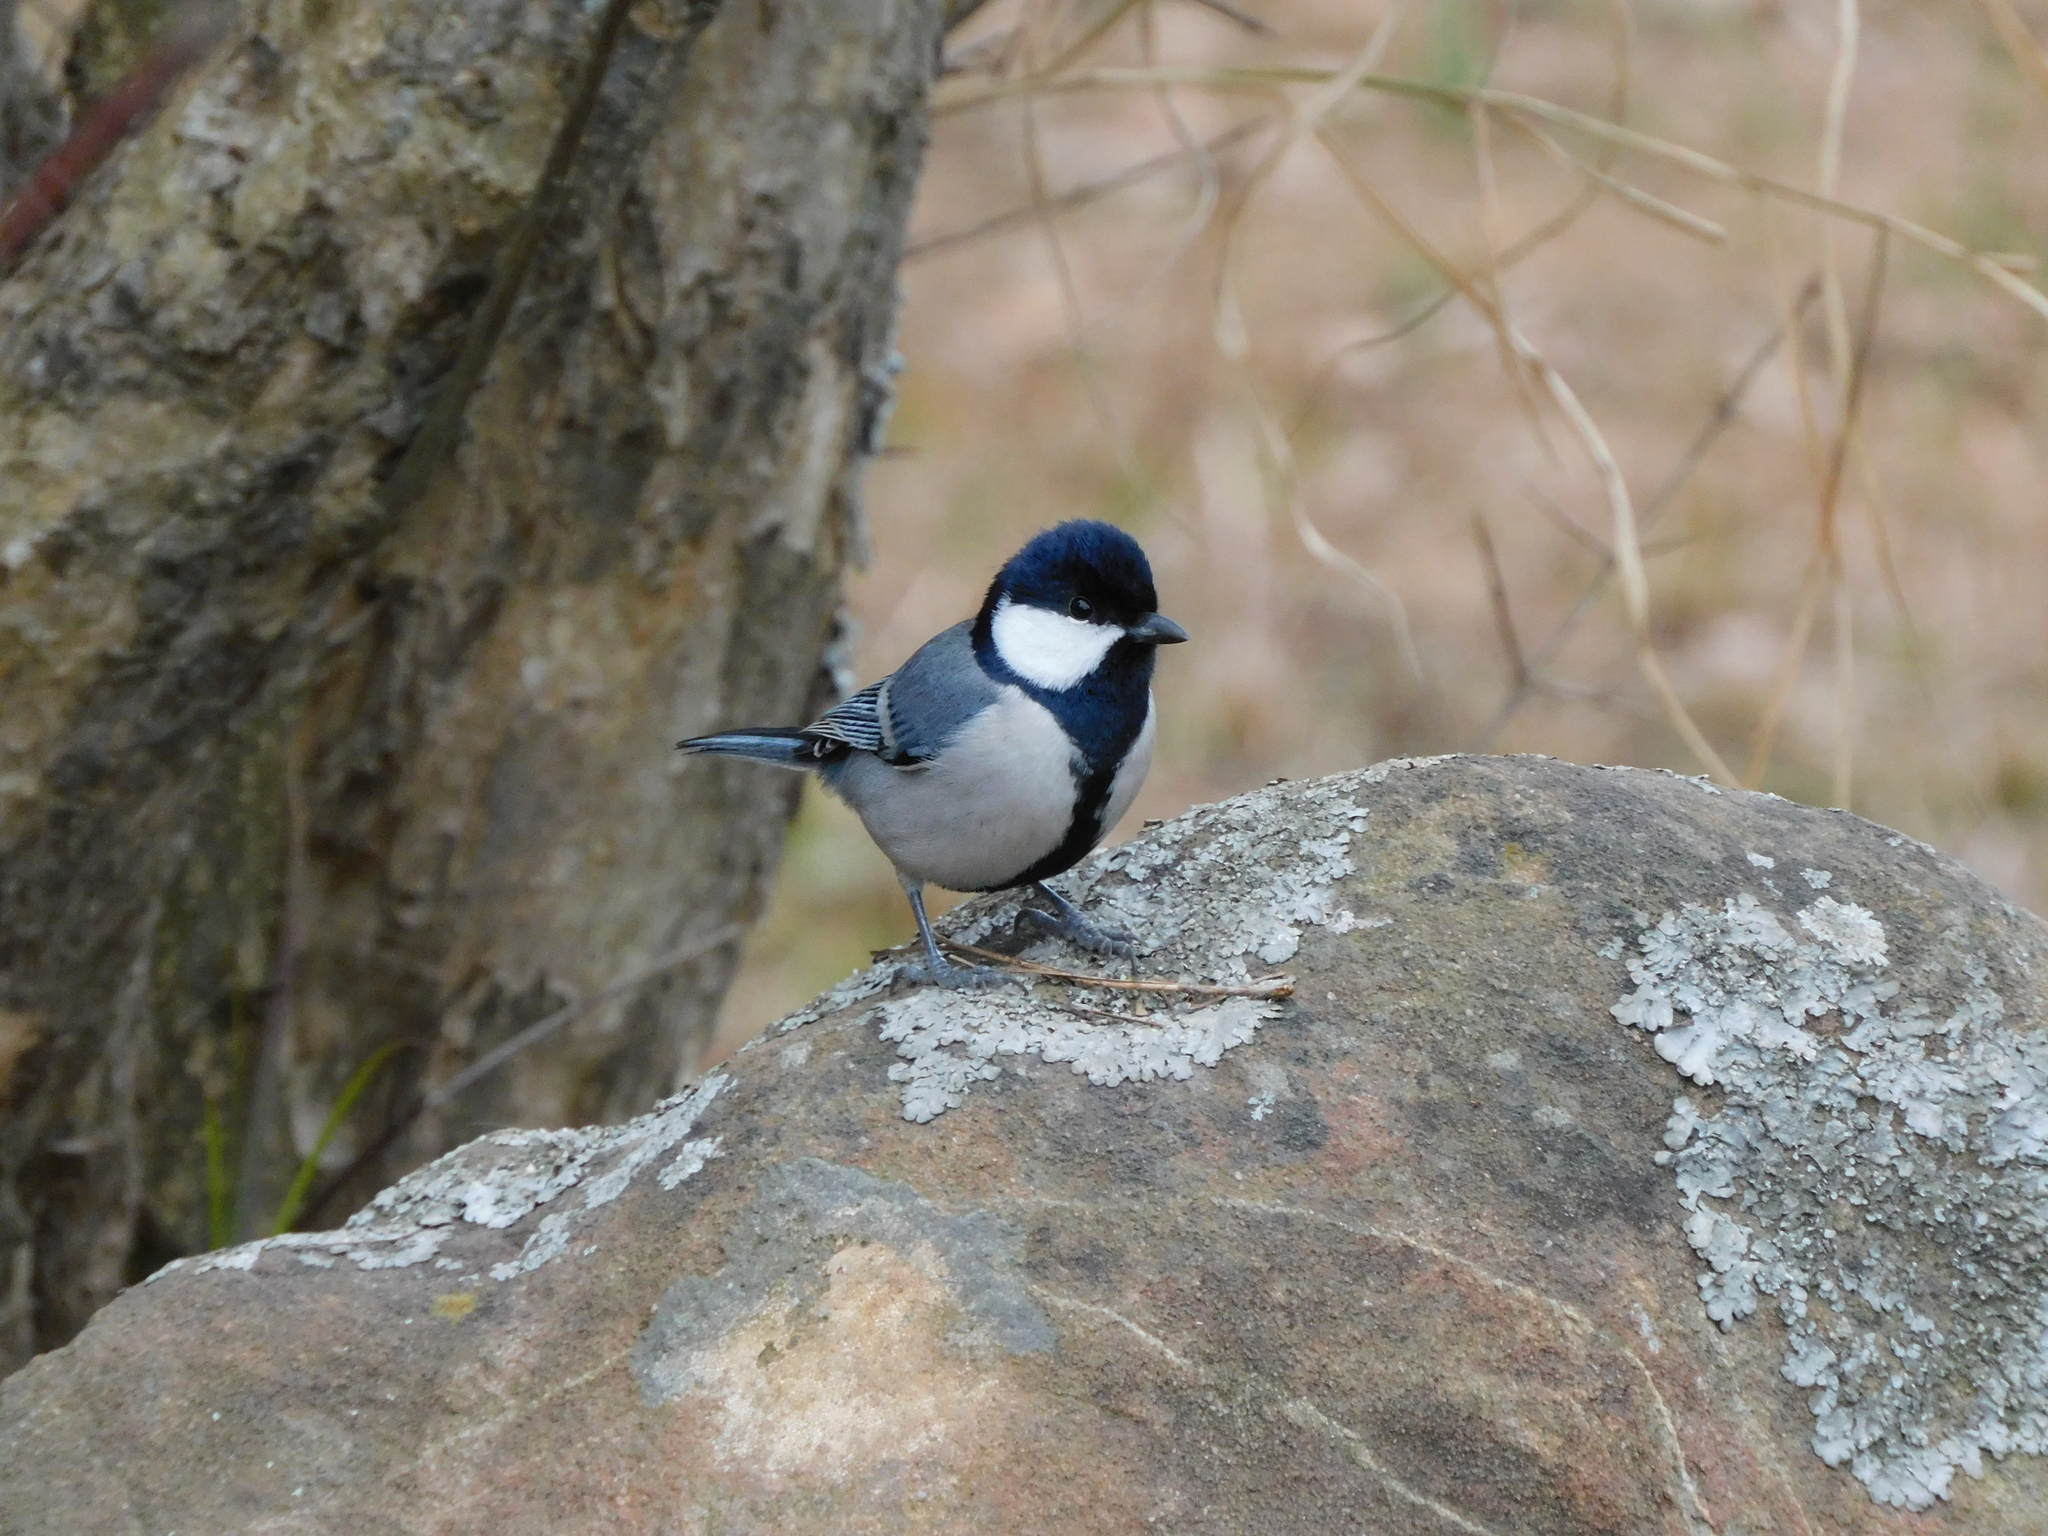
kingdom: Animalia
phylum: Chordata
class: Aves
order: Passeriformes
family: Paridae
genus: Parus
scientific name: Parus cinereus
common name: Cinereous tit
